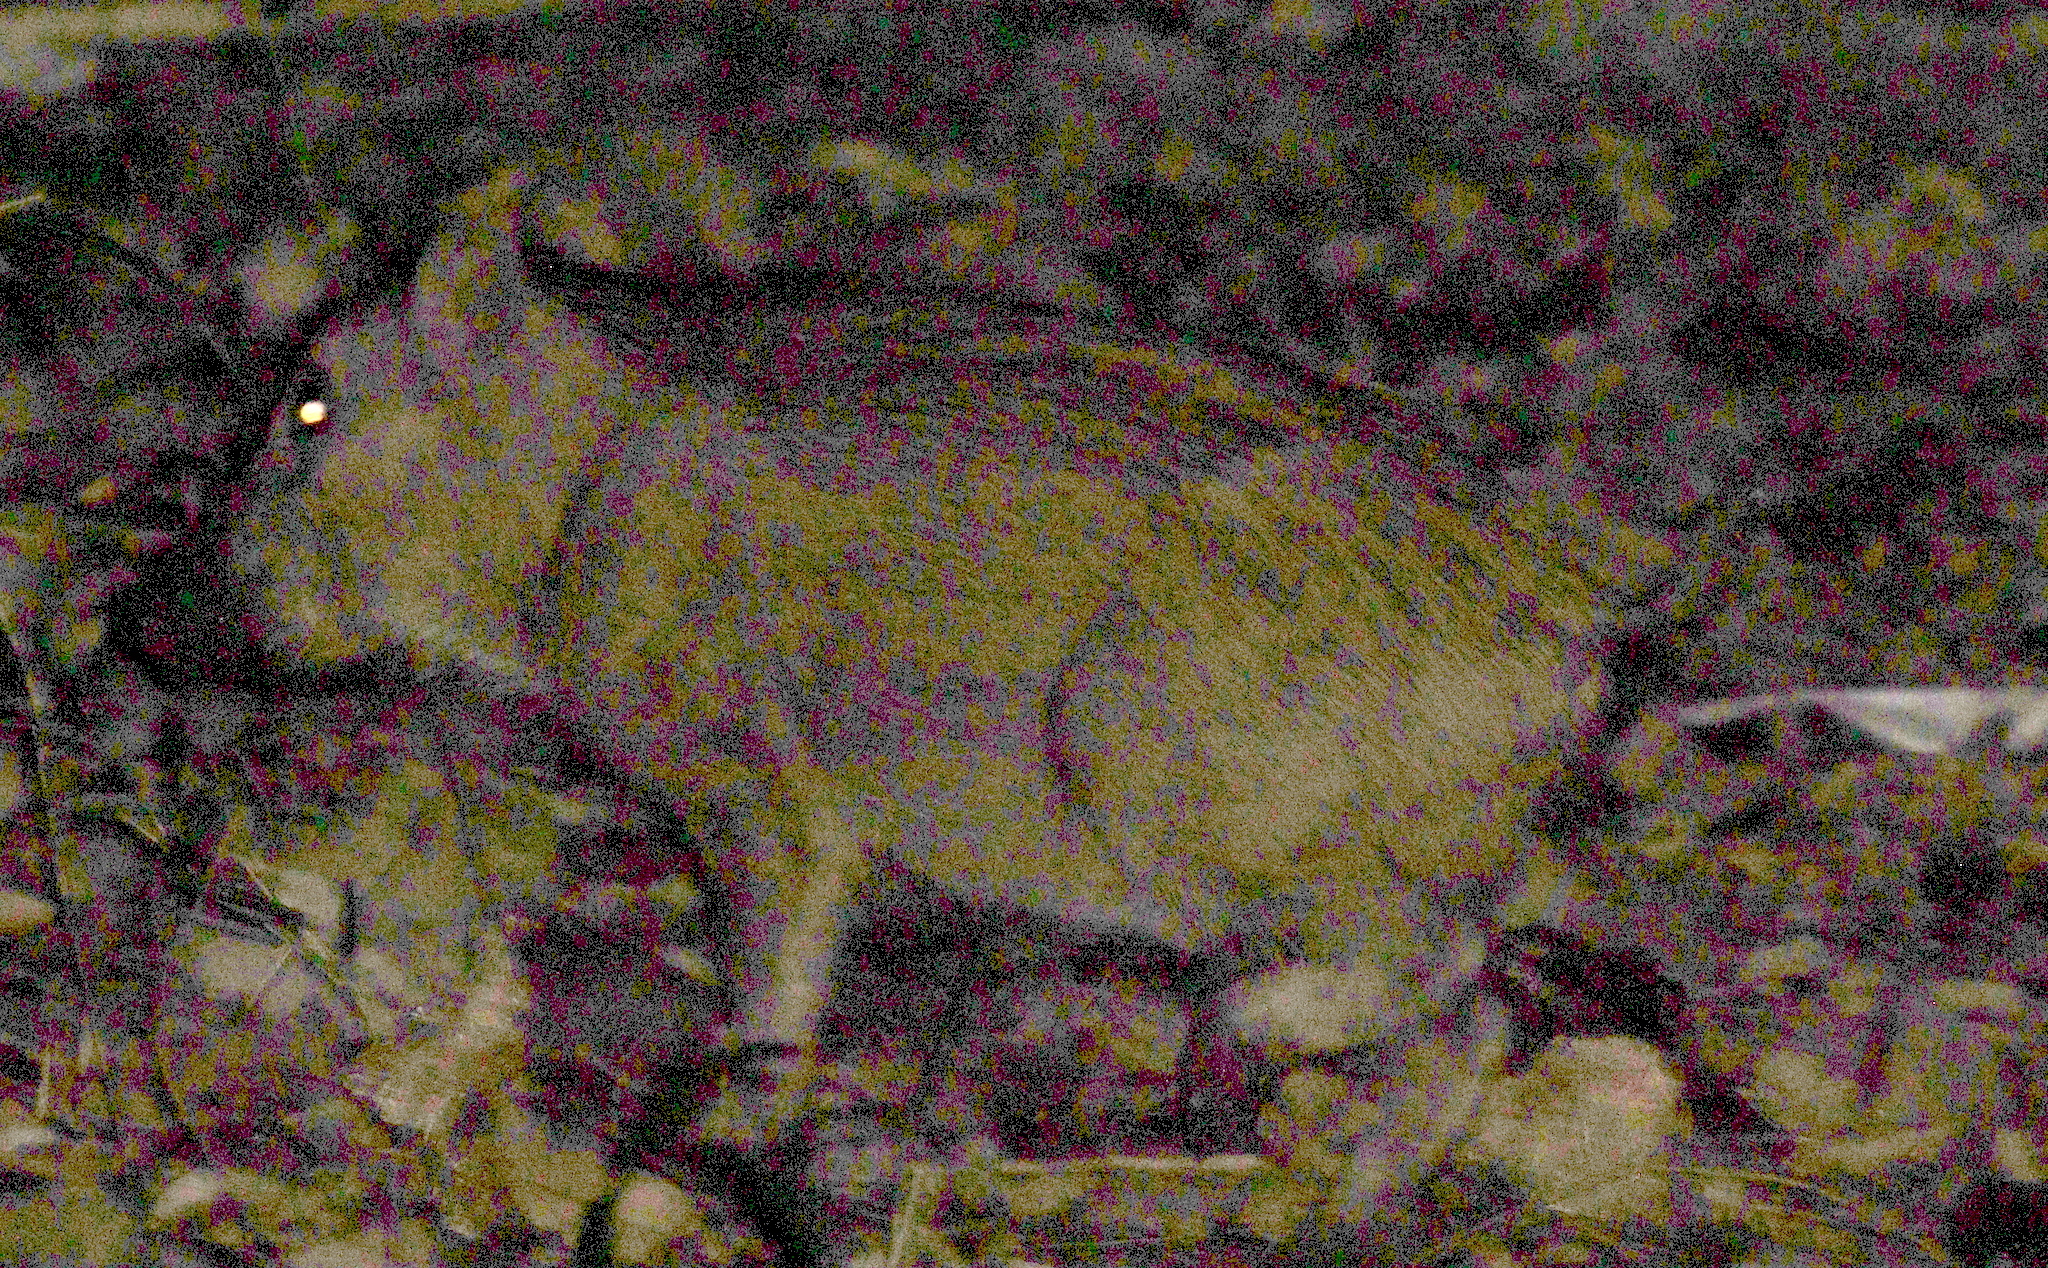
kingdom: Animalia
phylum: Chordata
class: Mammalia
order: Artiodactyla
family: Suidae
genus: Sus
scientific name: Sus scrofa
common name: Wild boar
